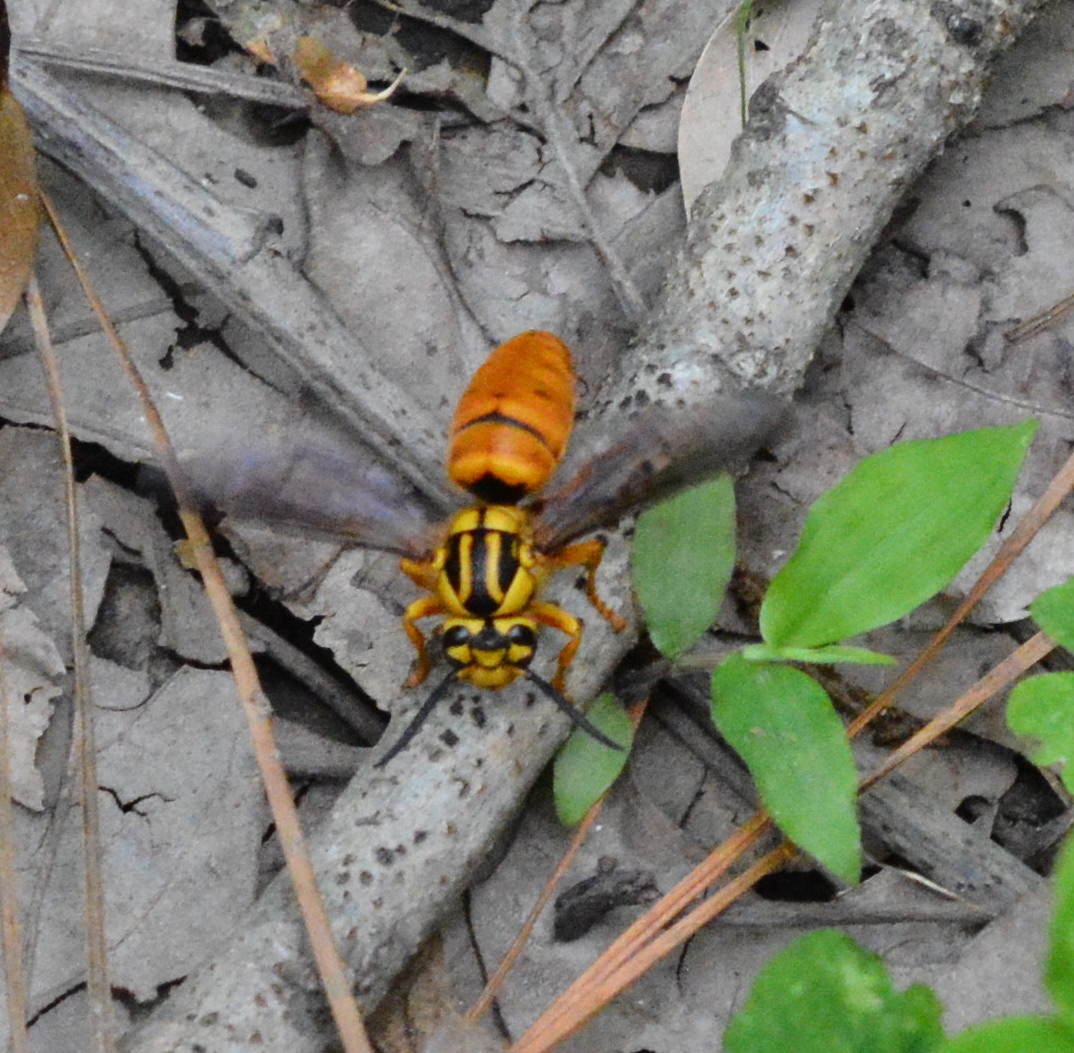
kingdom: Animalia
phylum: Arthropoda
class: Insecta
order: Hymenoptera
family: Vespidae
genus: Vespula
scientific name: Vespula squamosa
